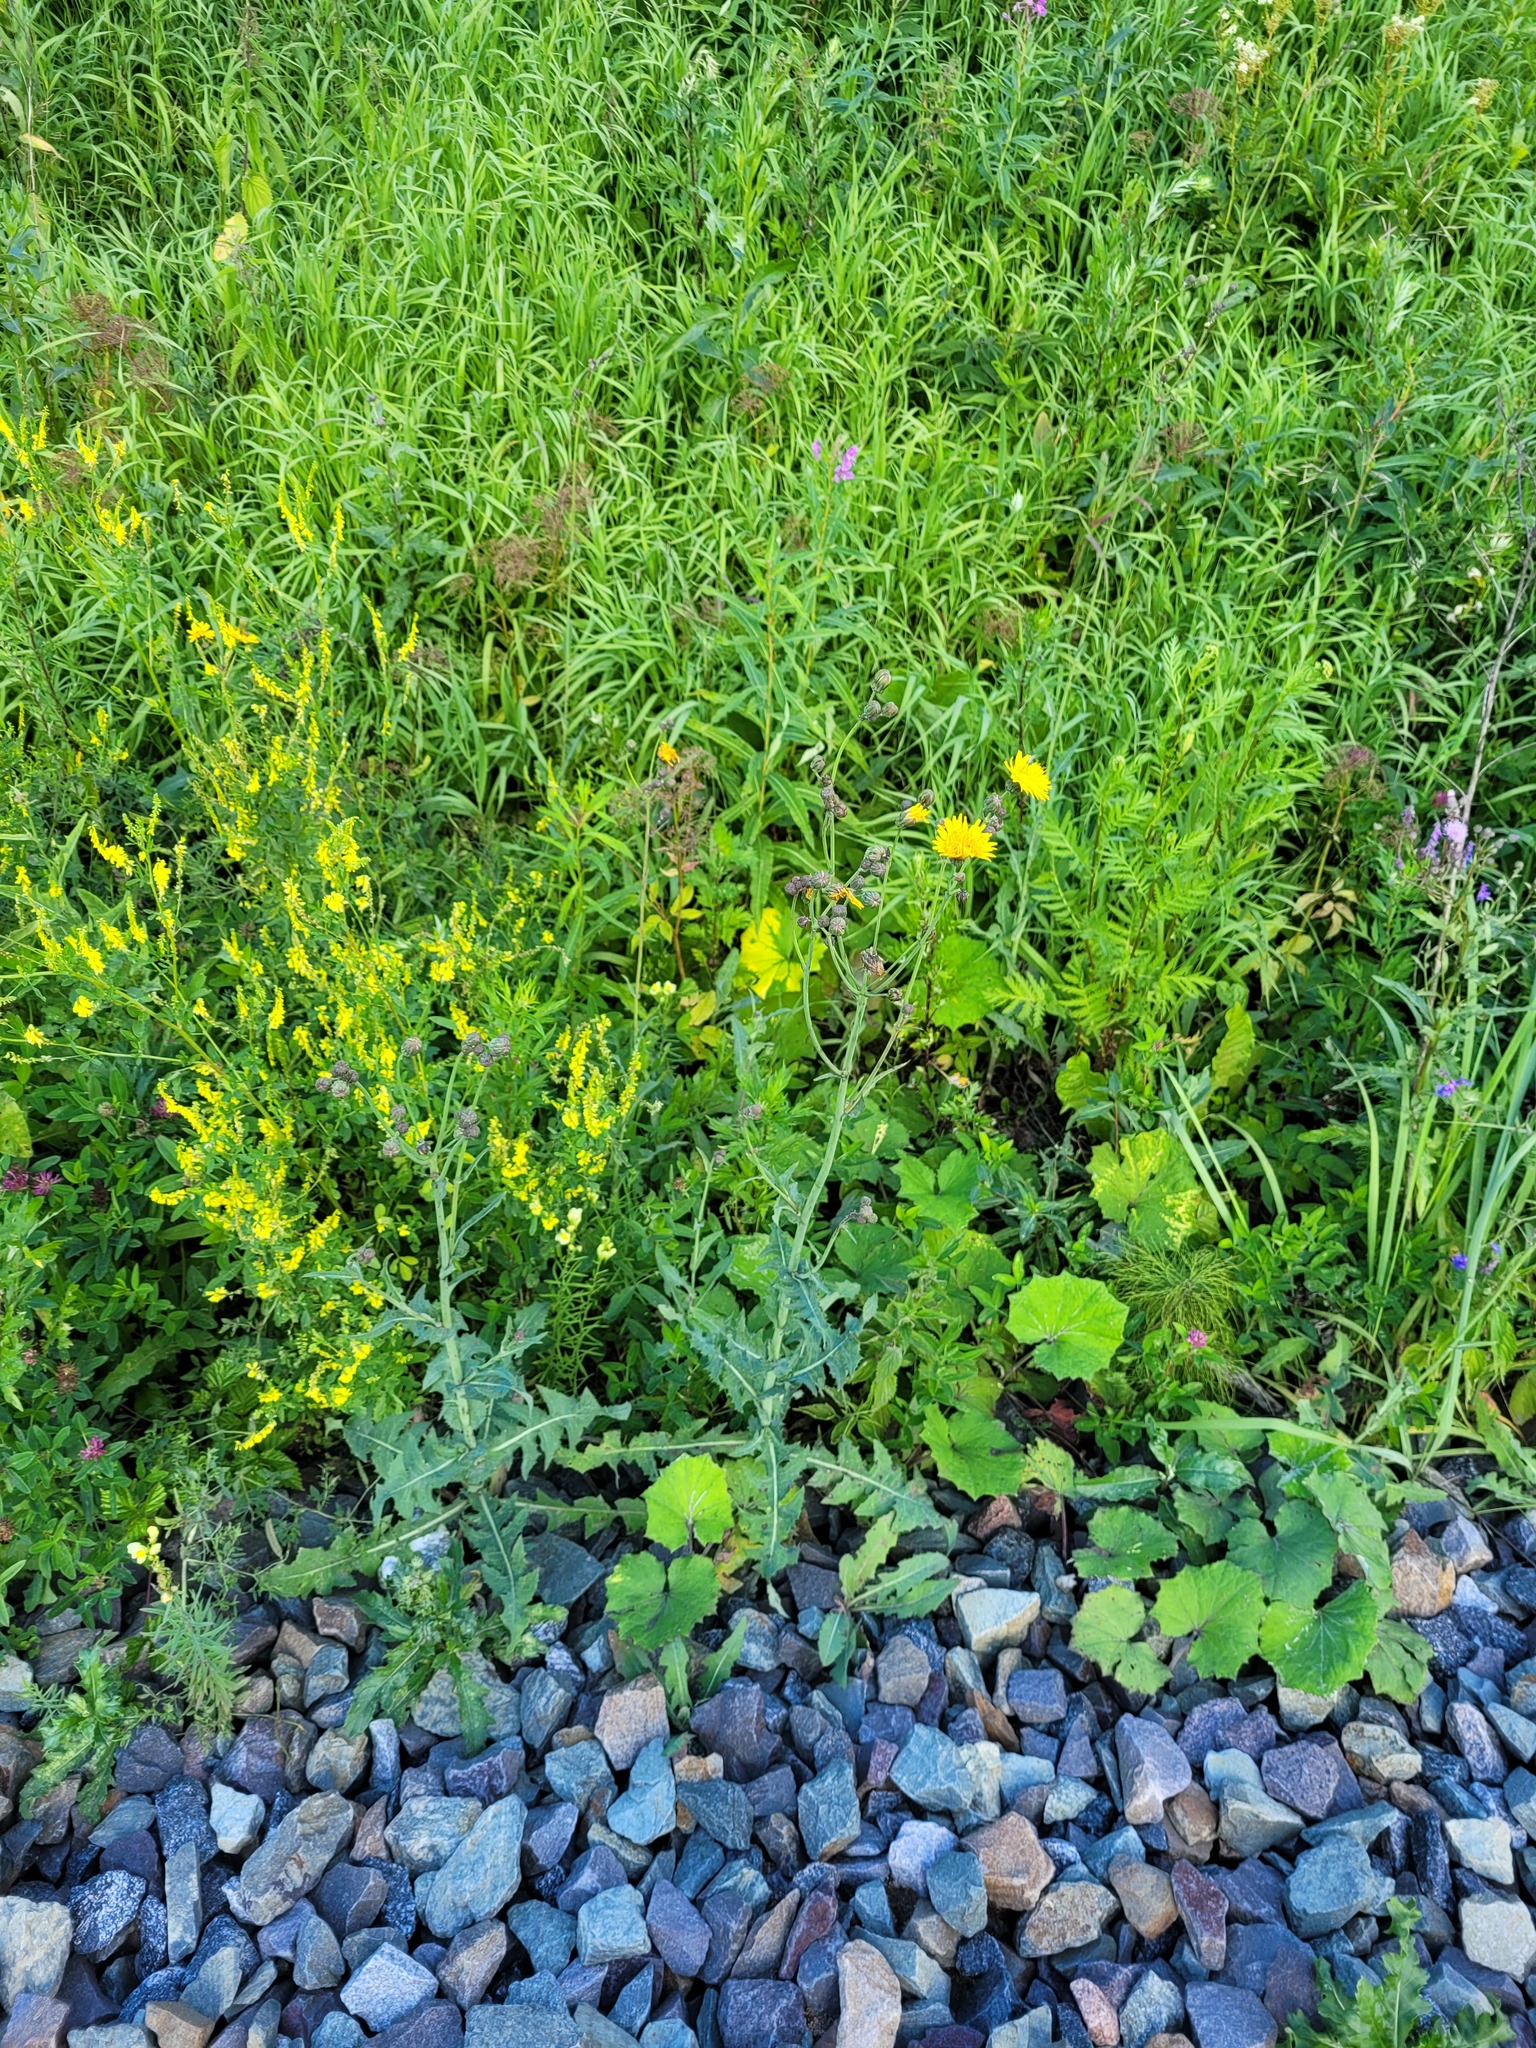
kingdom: Plantae
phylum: Tracheophyta
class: Magnoliopsida
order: Fabales
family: Fabaceae
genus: Melilotus
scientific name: Melilotus officinalis
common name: Sweetclover
